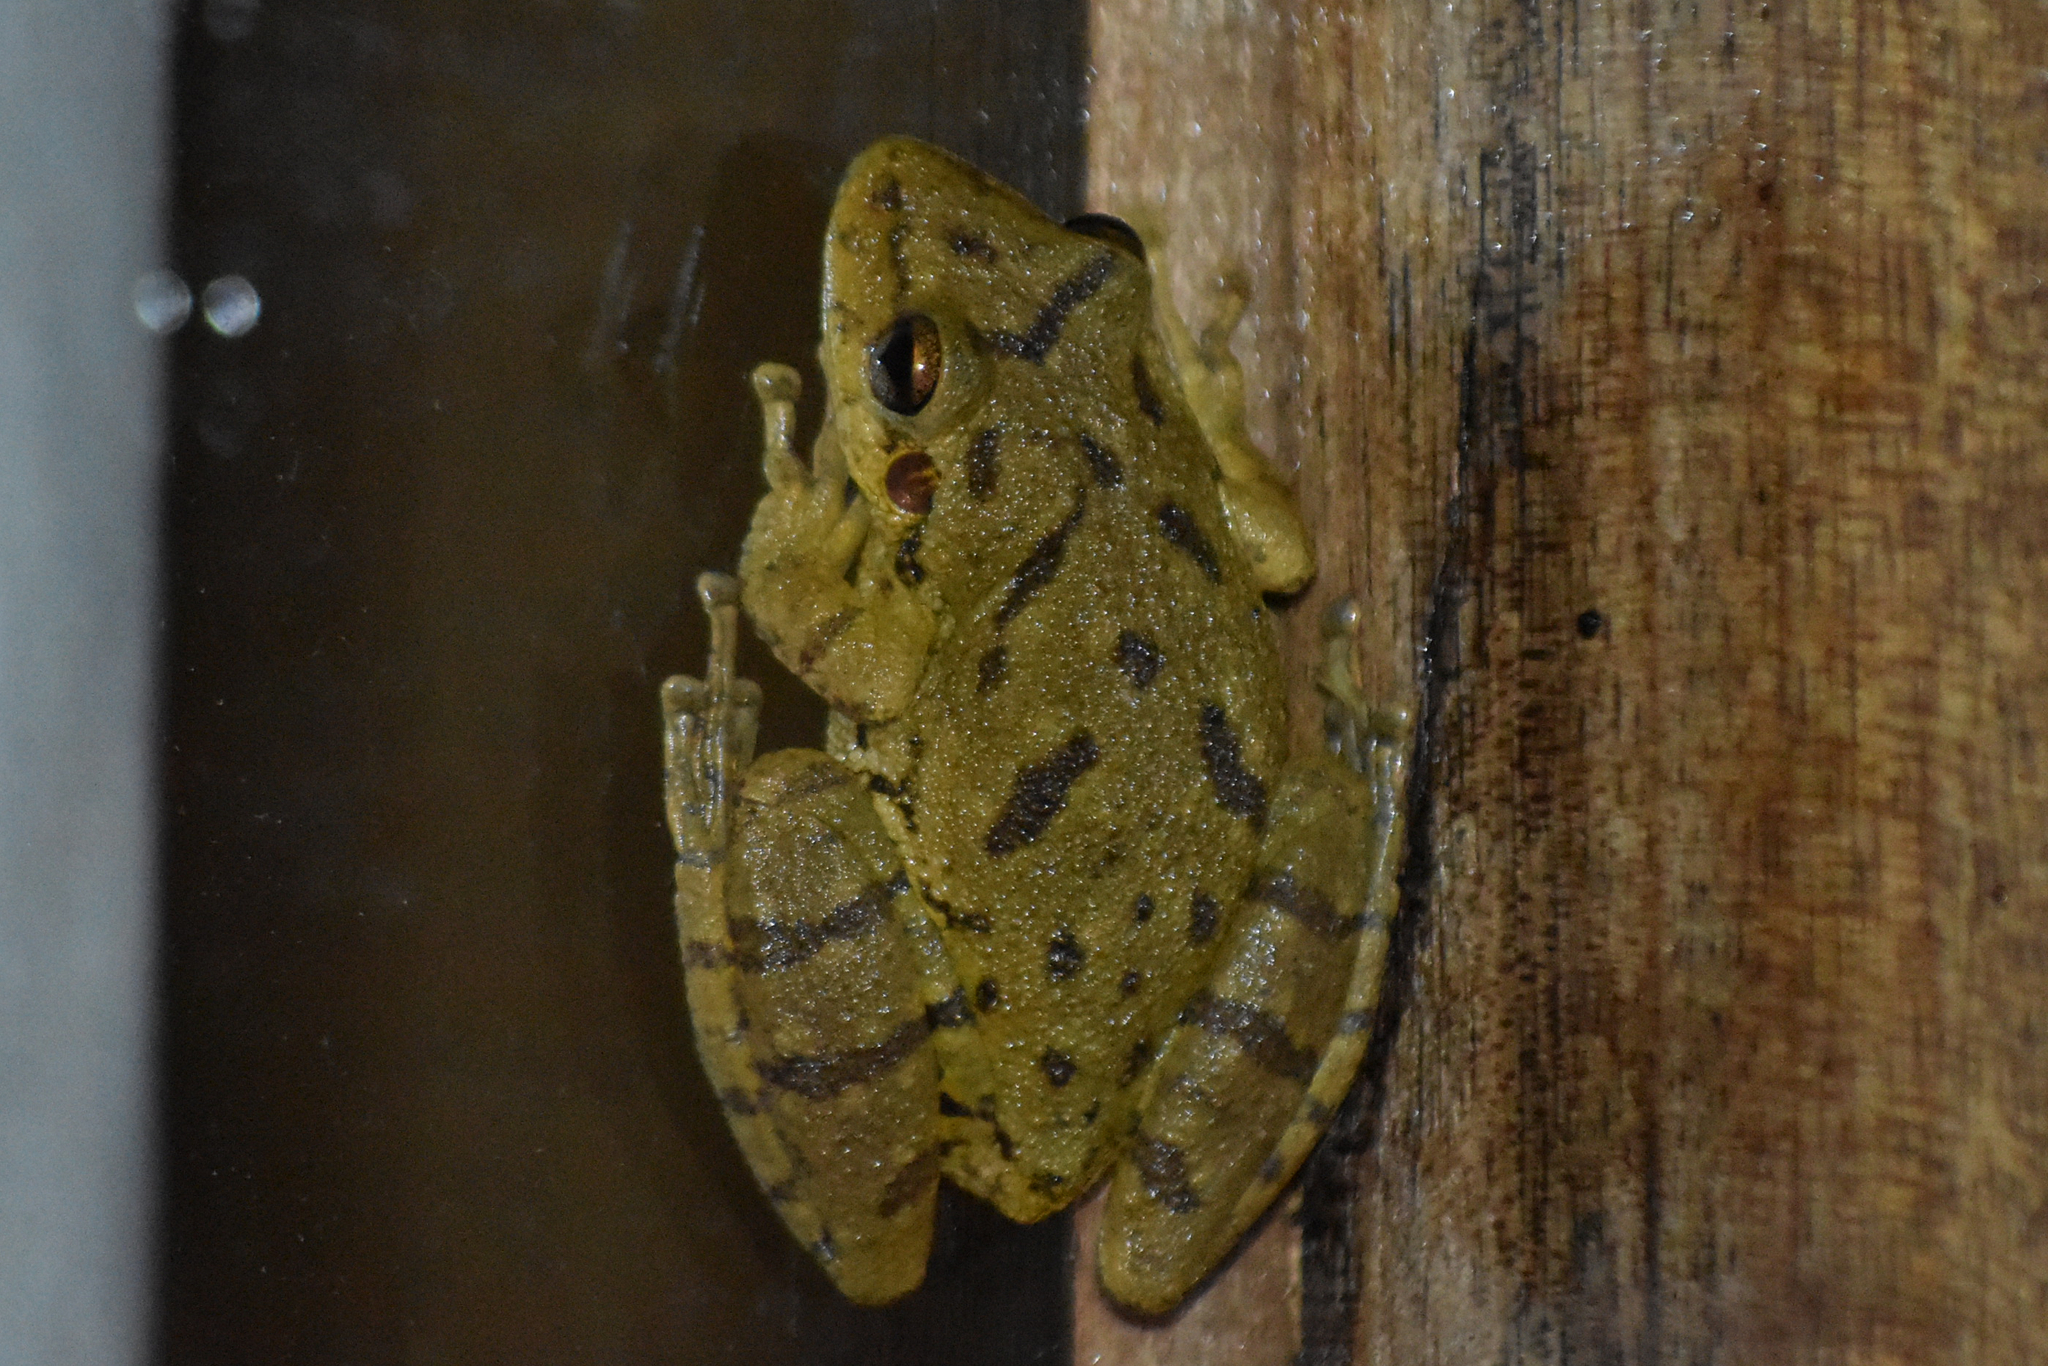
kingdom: Animalia
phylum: Chordata
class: Amphibia
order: Anura
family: Hylidae
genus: Scinax
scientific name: Scinax fuscovarius
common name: Fuscous-blotched treefrog
